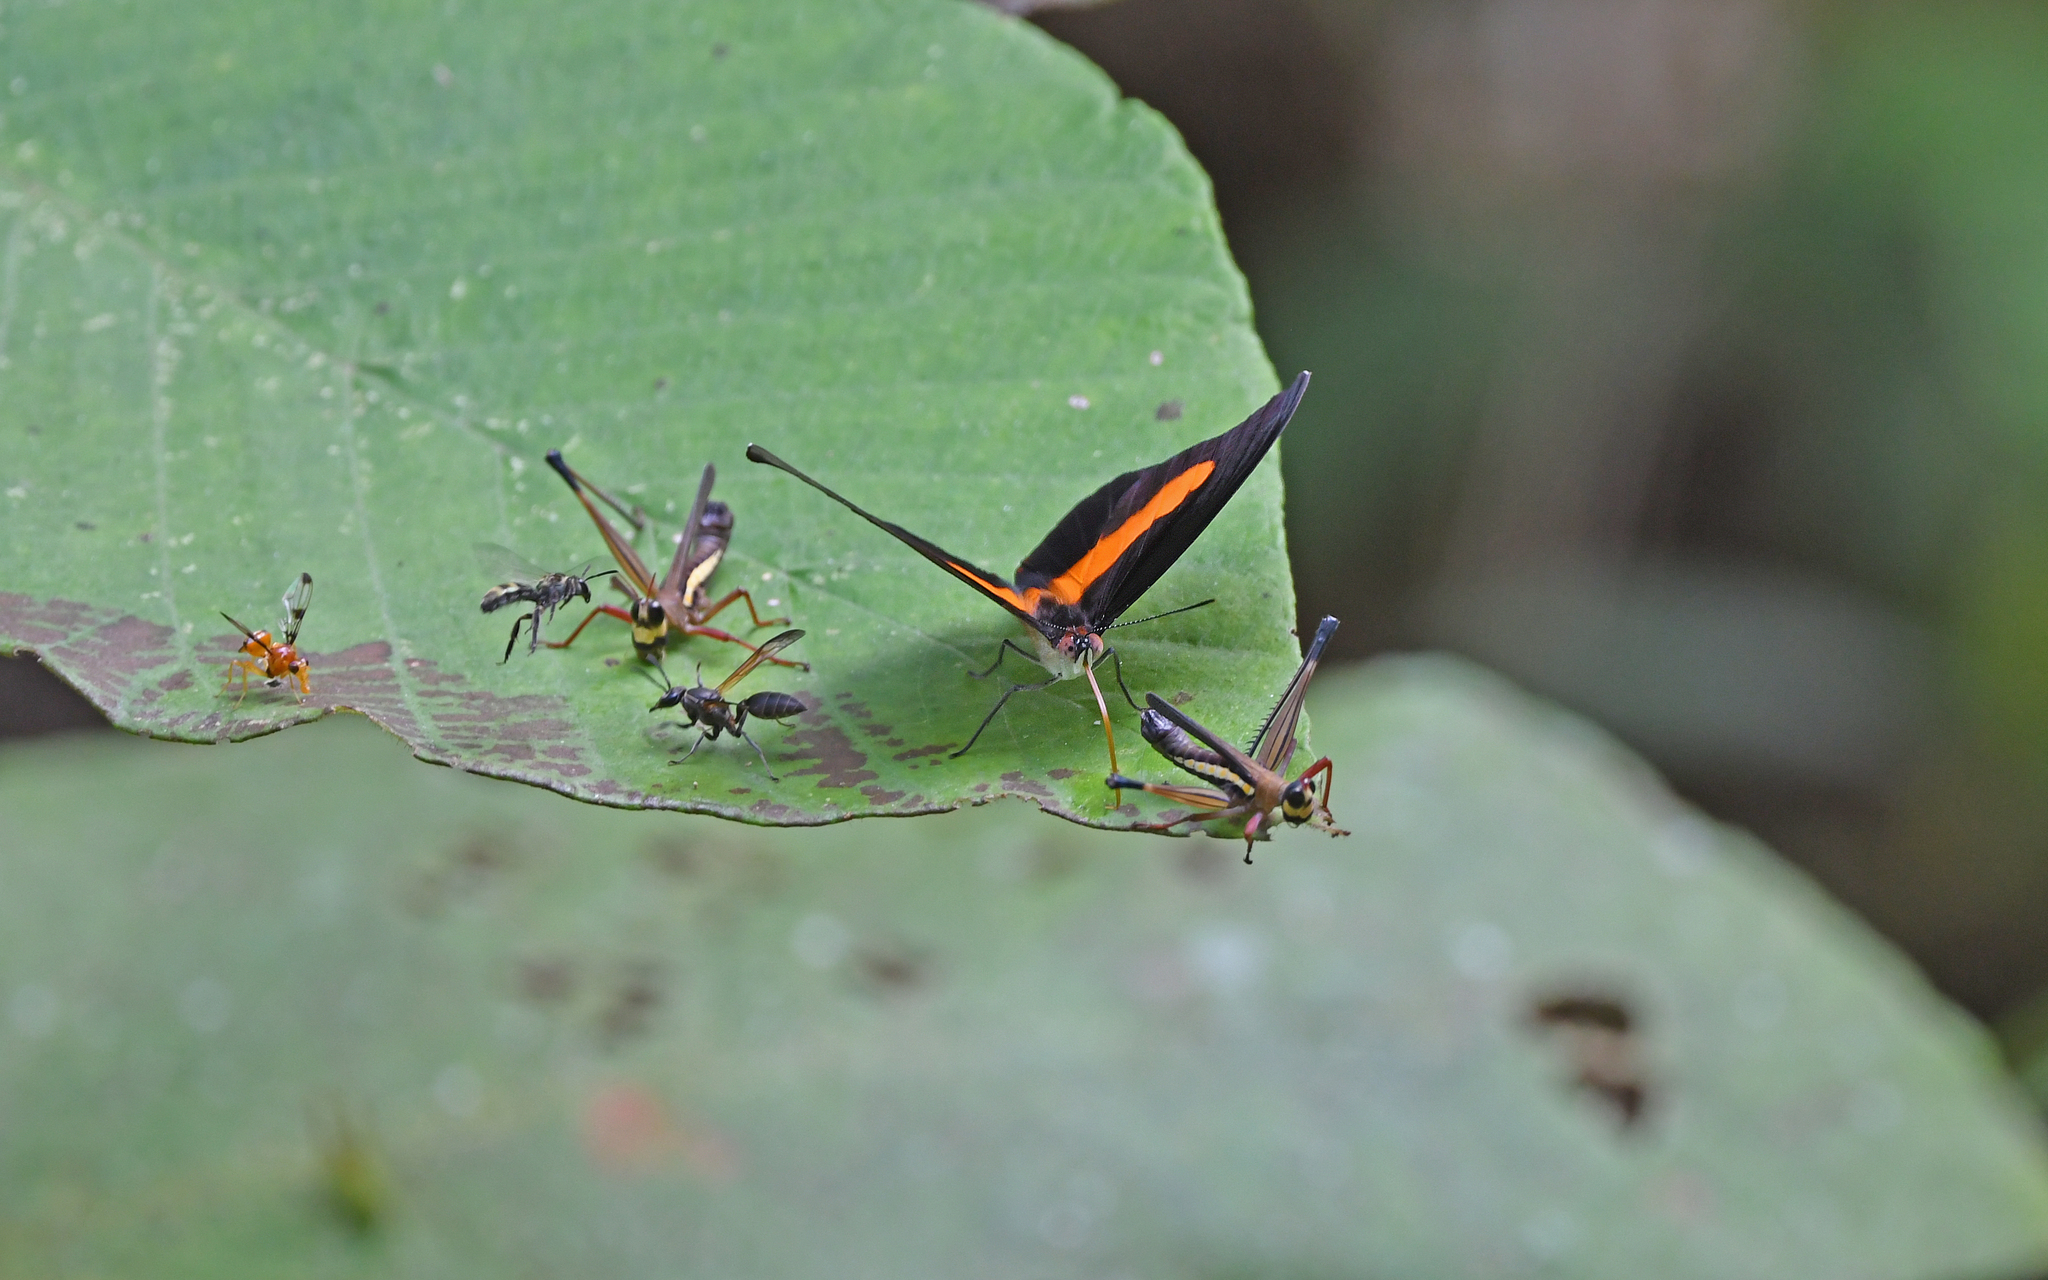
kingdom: Animalia
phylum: Arthropoda
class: Insecta
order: Lepidoptera
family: Nymphalidae
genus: Catonephele
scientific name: Catonephele acontius
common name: Unspotted firewing
